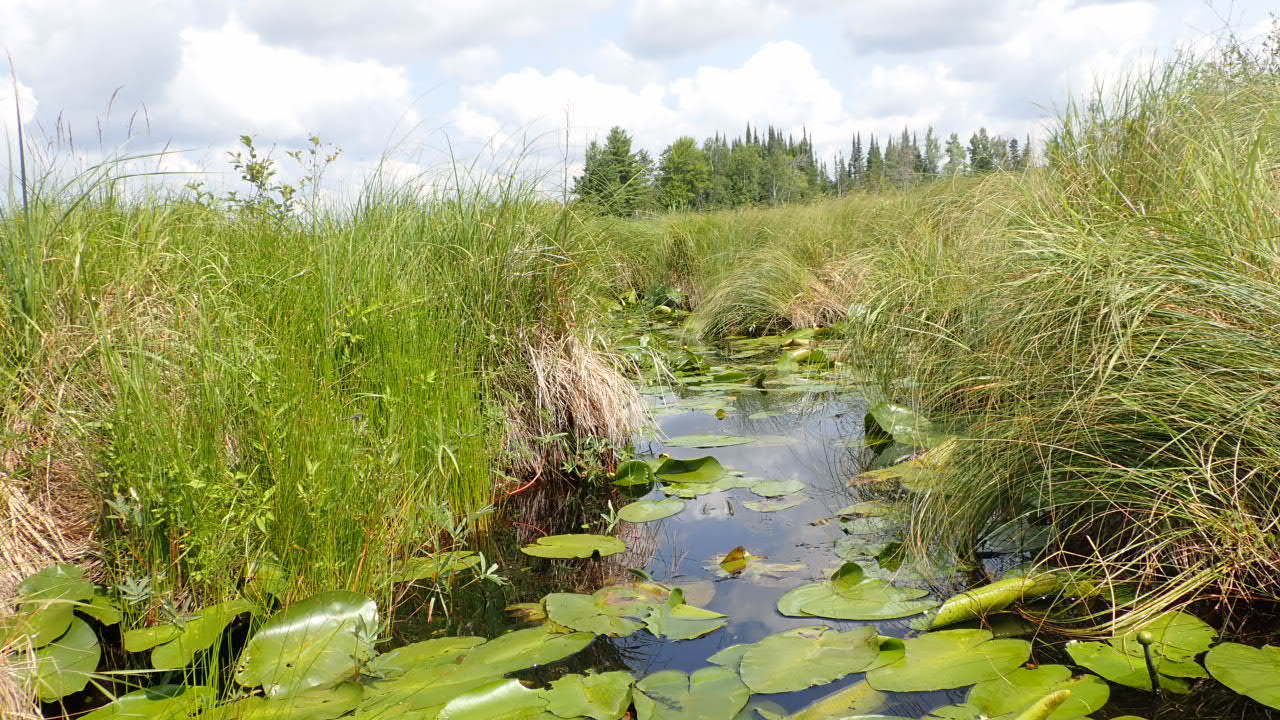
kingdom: Plantae
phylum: Tracheophyta
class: Magnoliopsida
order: Nymphaeales
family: Nymphaeaceae
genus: Nuphar
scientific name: Nuphar variegata
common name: Beaver-root
